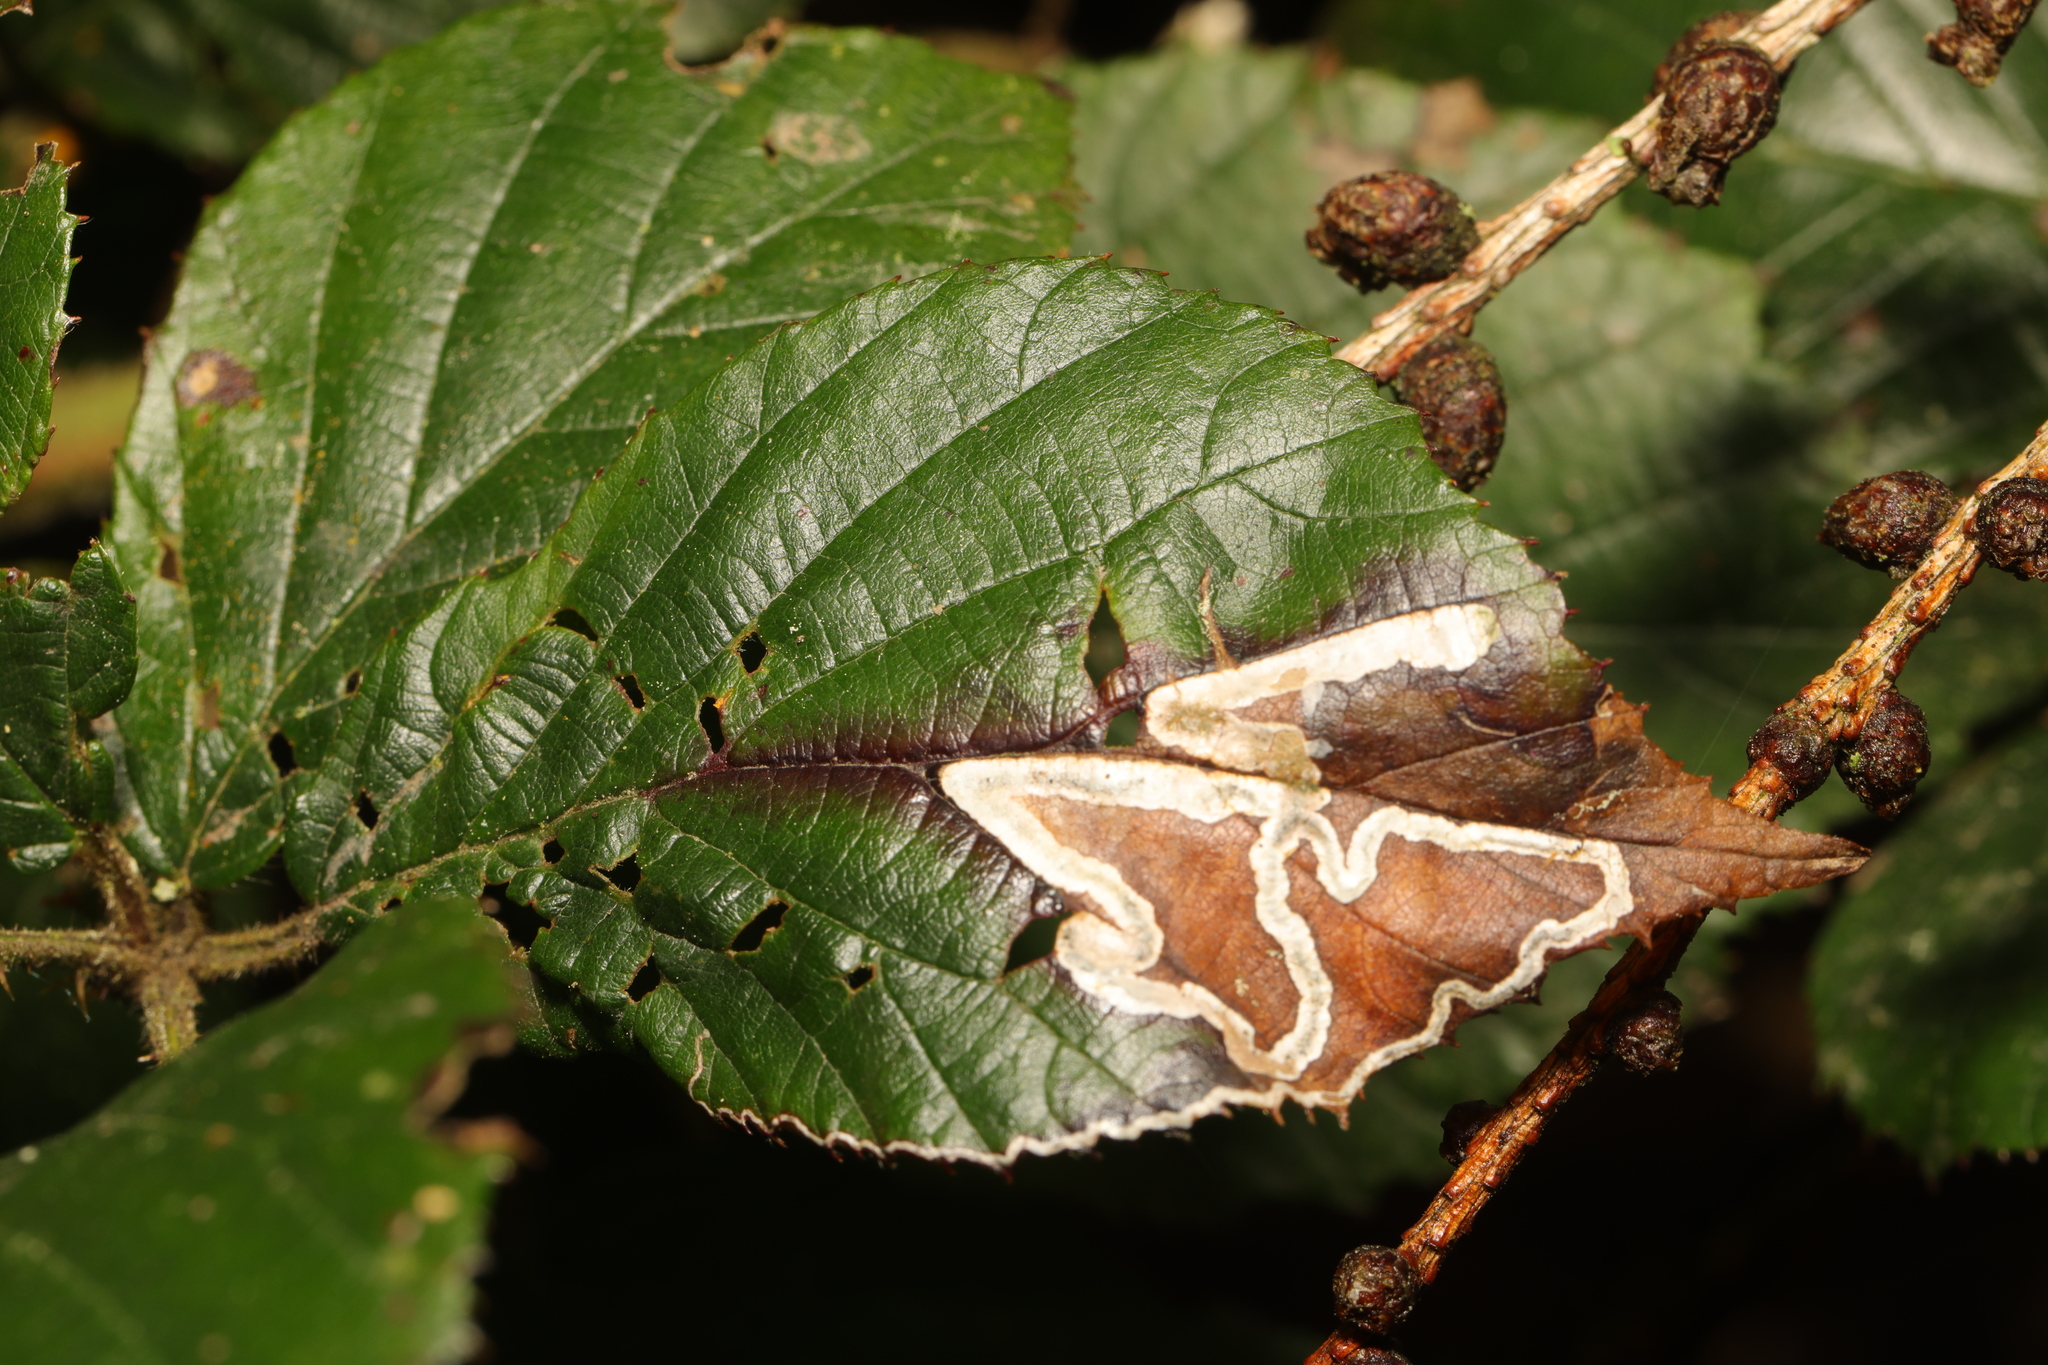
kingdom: Animalia
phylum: Arthropoda
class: Insecta
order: Lepidoptera
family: Nepticulidae
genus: Stigmella
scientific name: Stigmella aurella
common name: Golden pigmy
